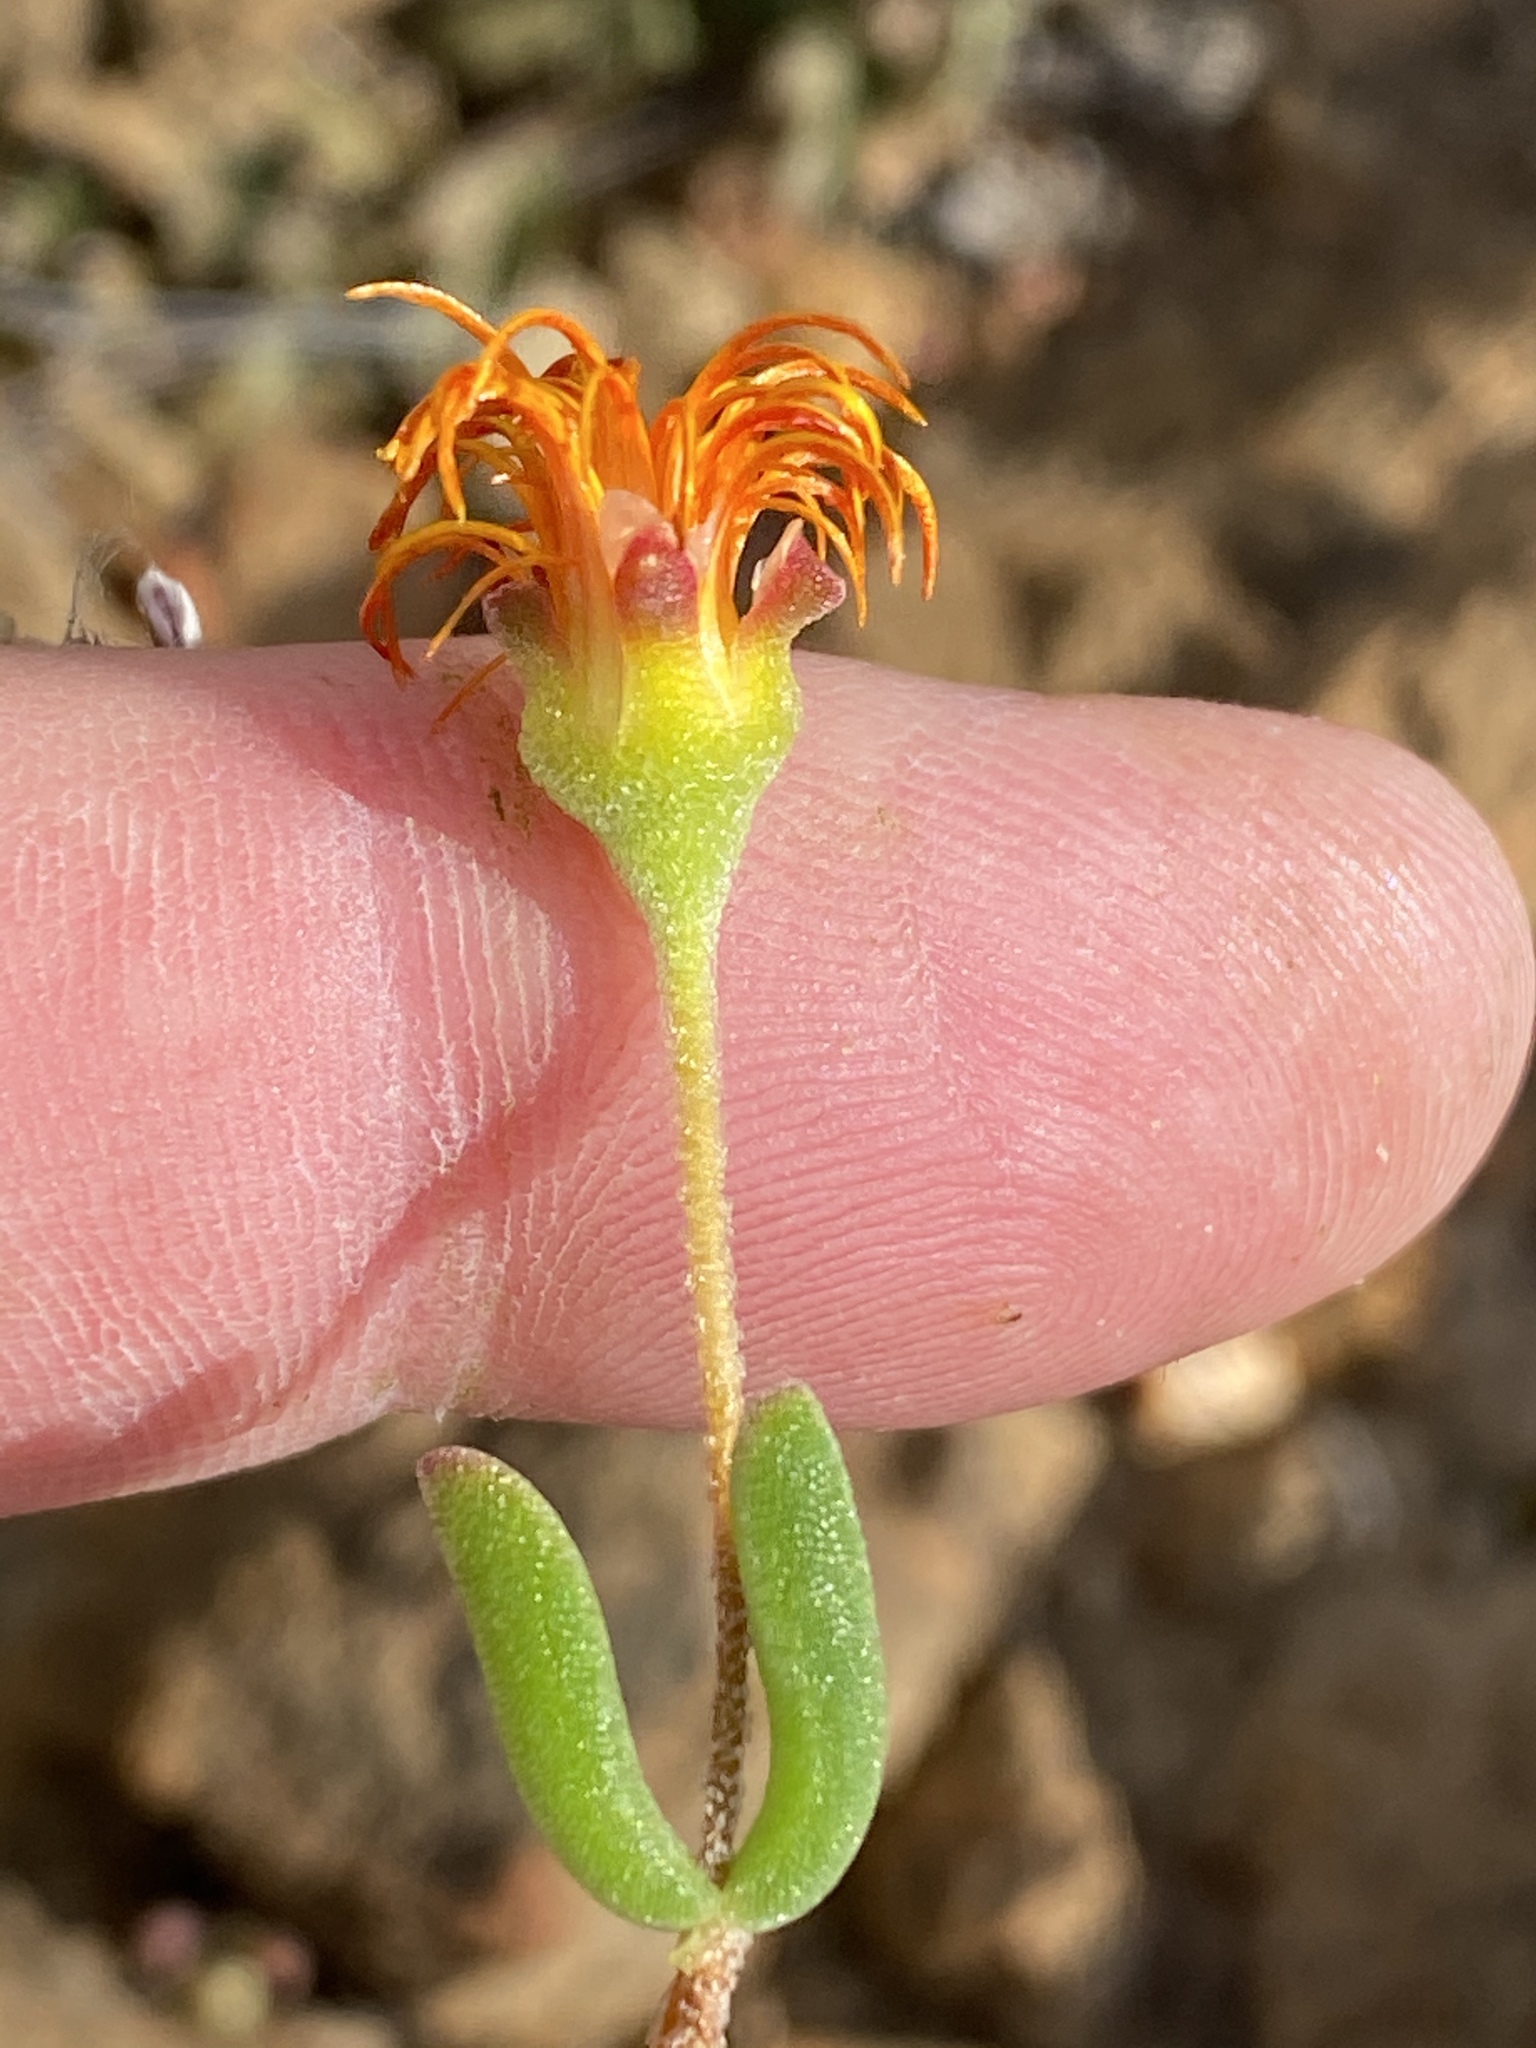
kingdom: Plantae
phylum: Tracheophyta
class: Magnoliopsida
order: Caryophyllales
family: Aizoaceae
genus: Drosanthemum
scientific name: Drosanthemum flavum
